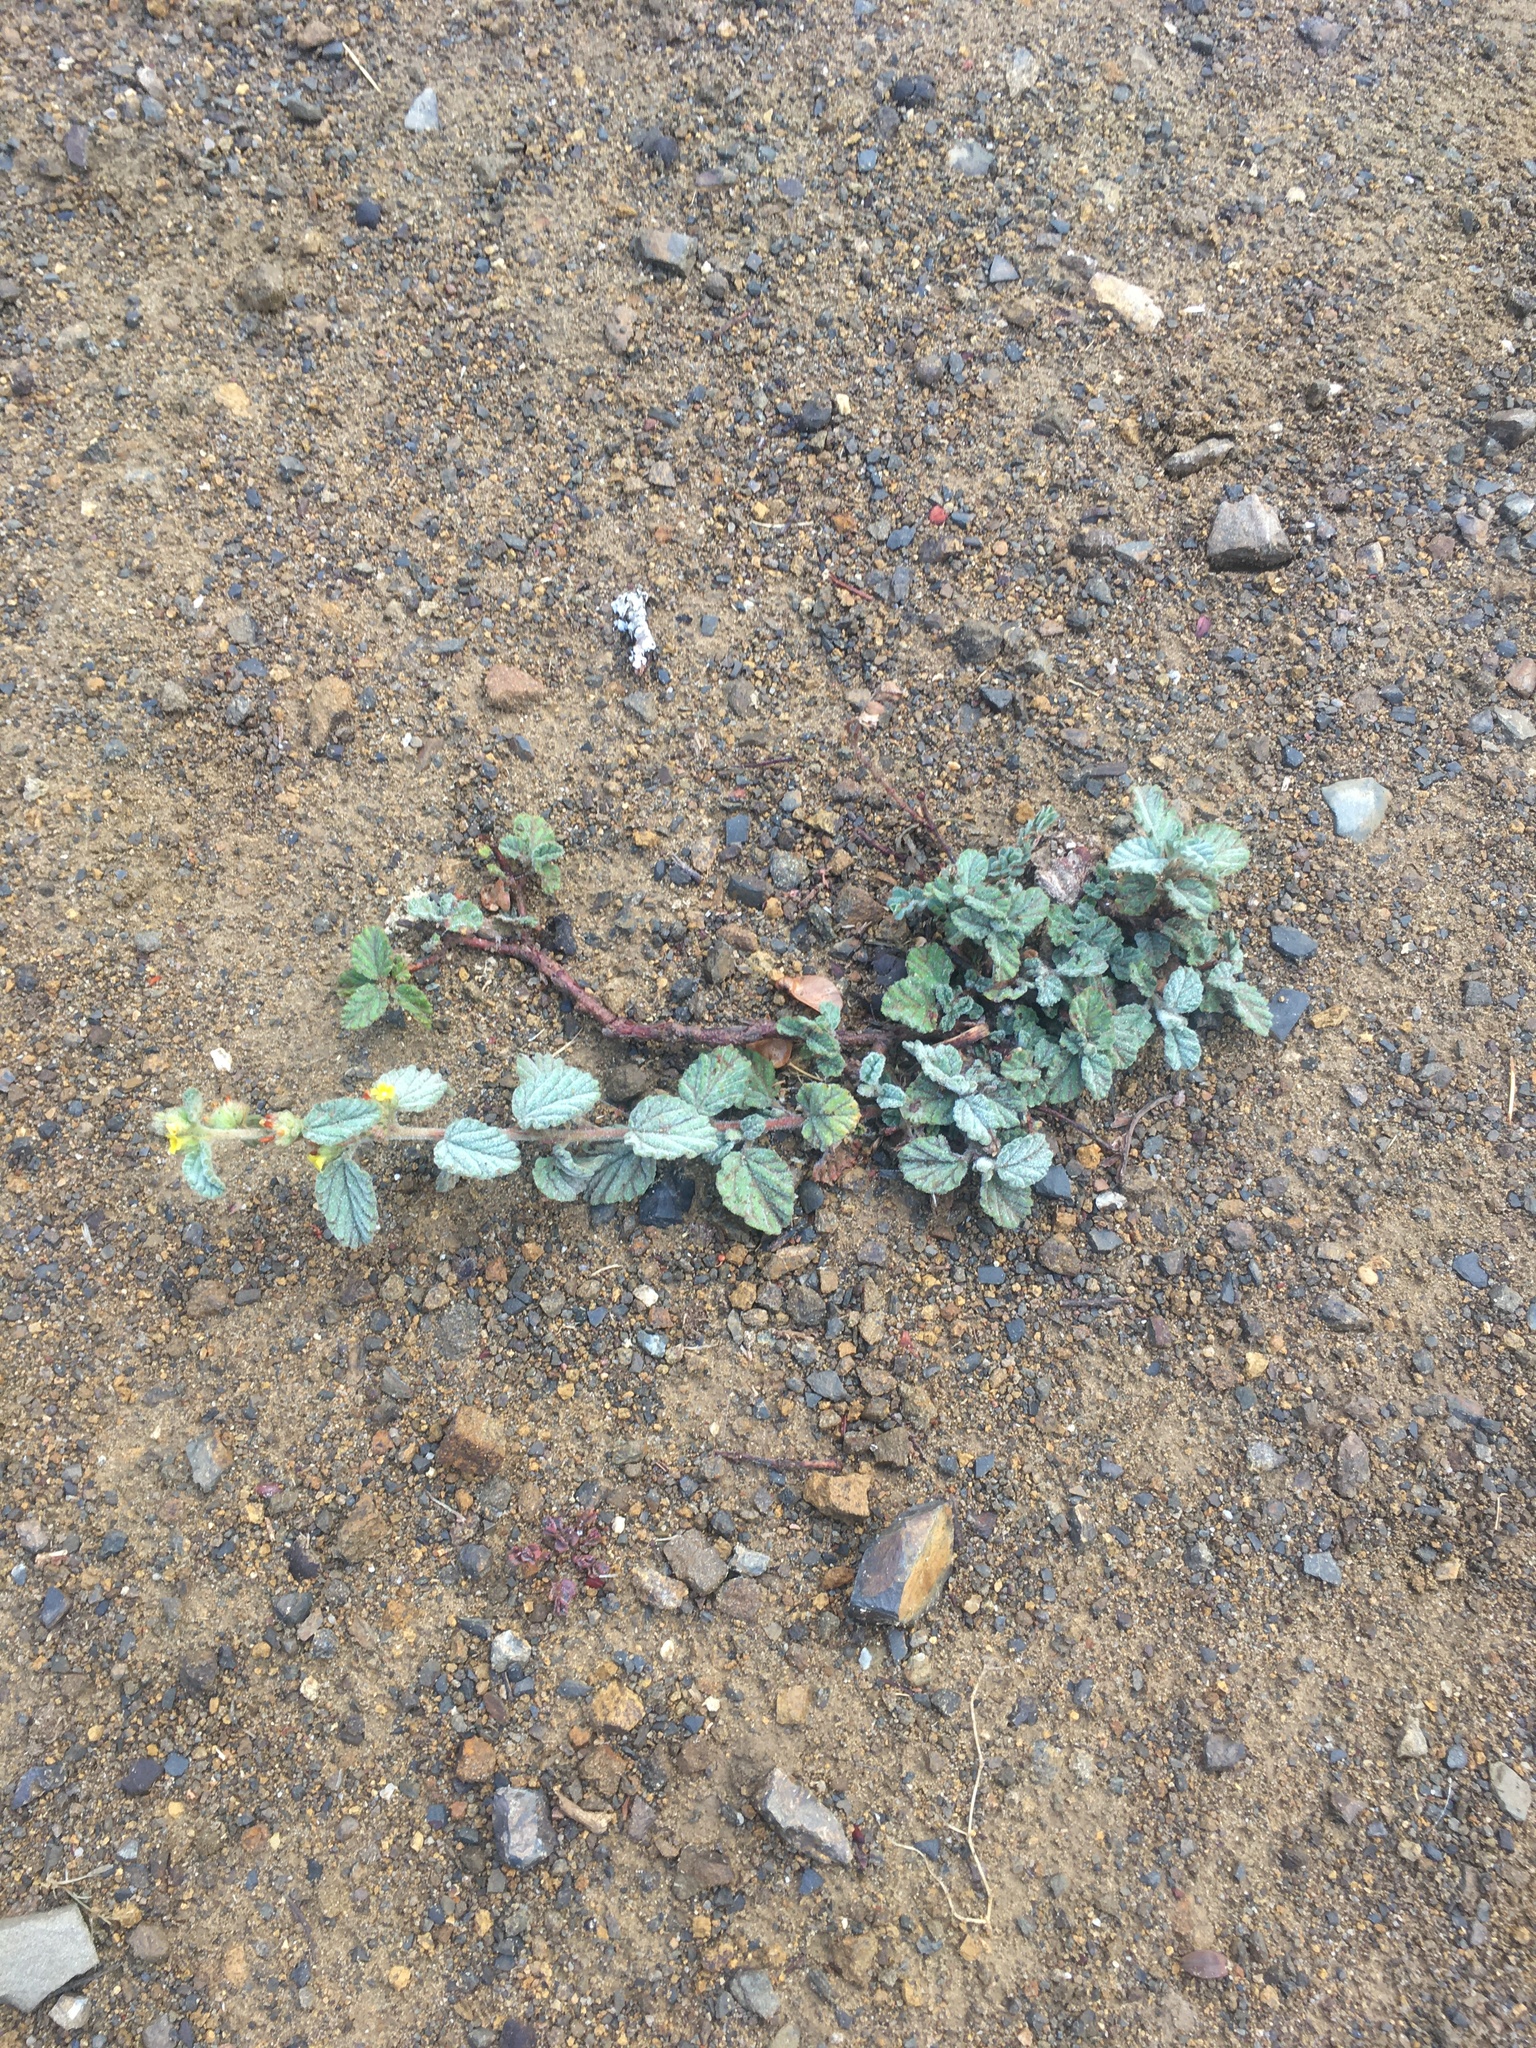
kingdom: Plantae
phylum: Tracheophyta
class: Magnoliopsida
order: Malvales
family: Malvaceae
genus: Waltheria
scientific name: Waltheria indica
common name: Leather-coat
